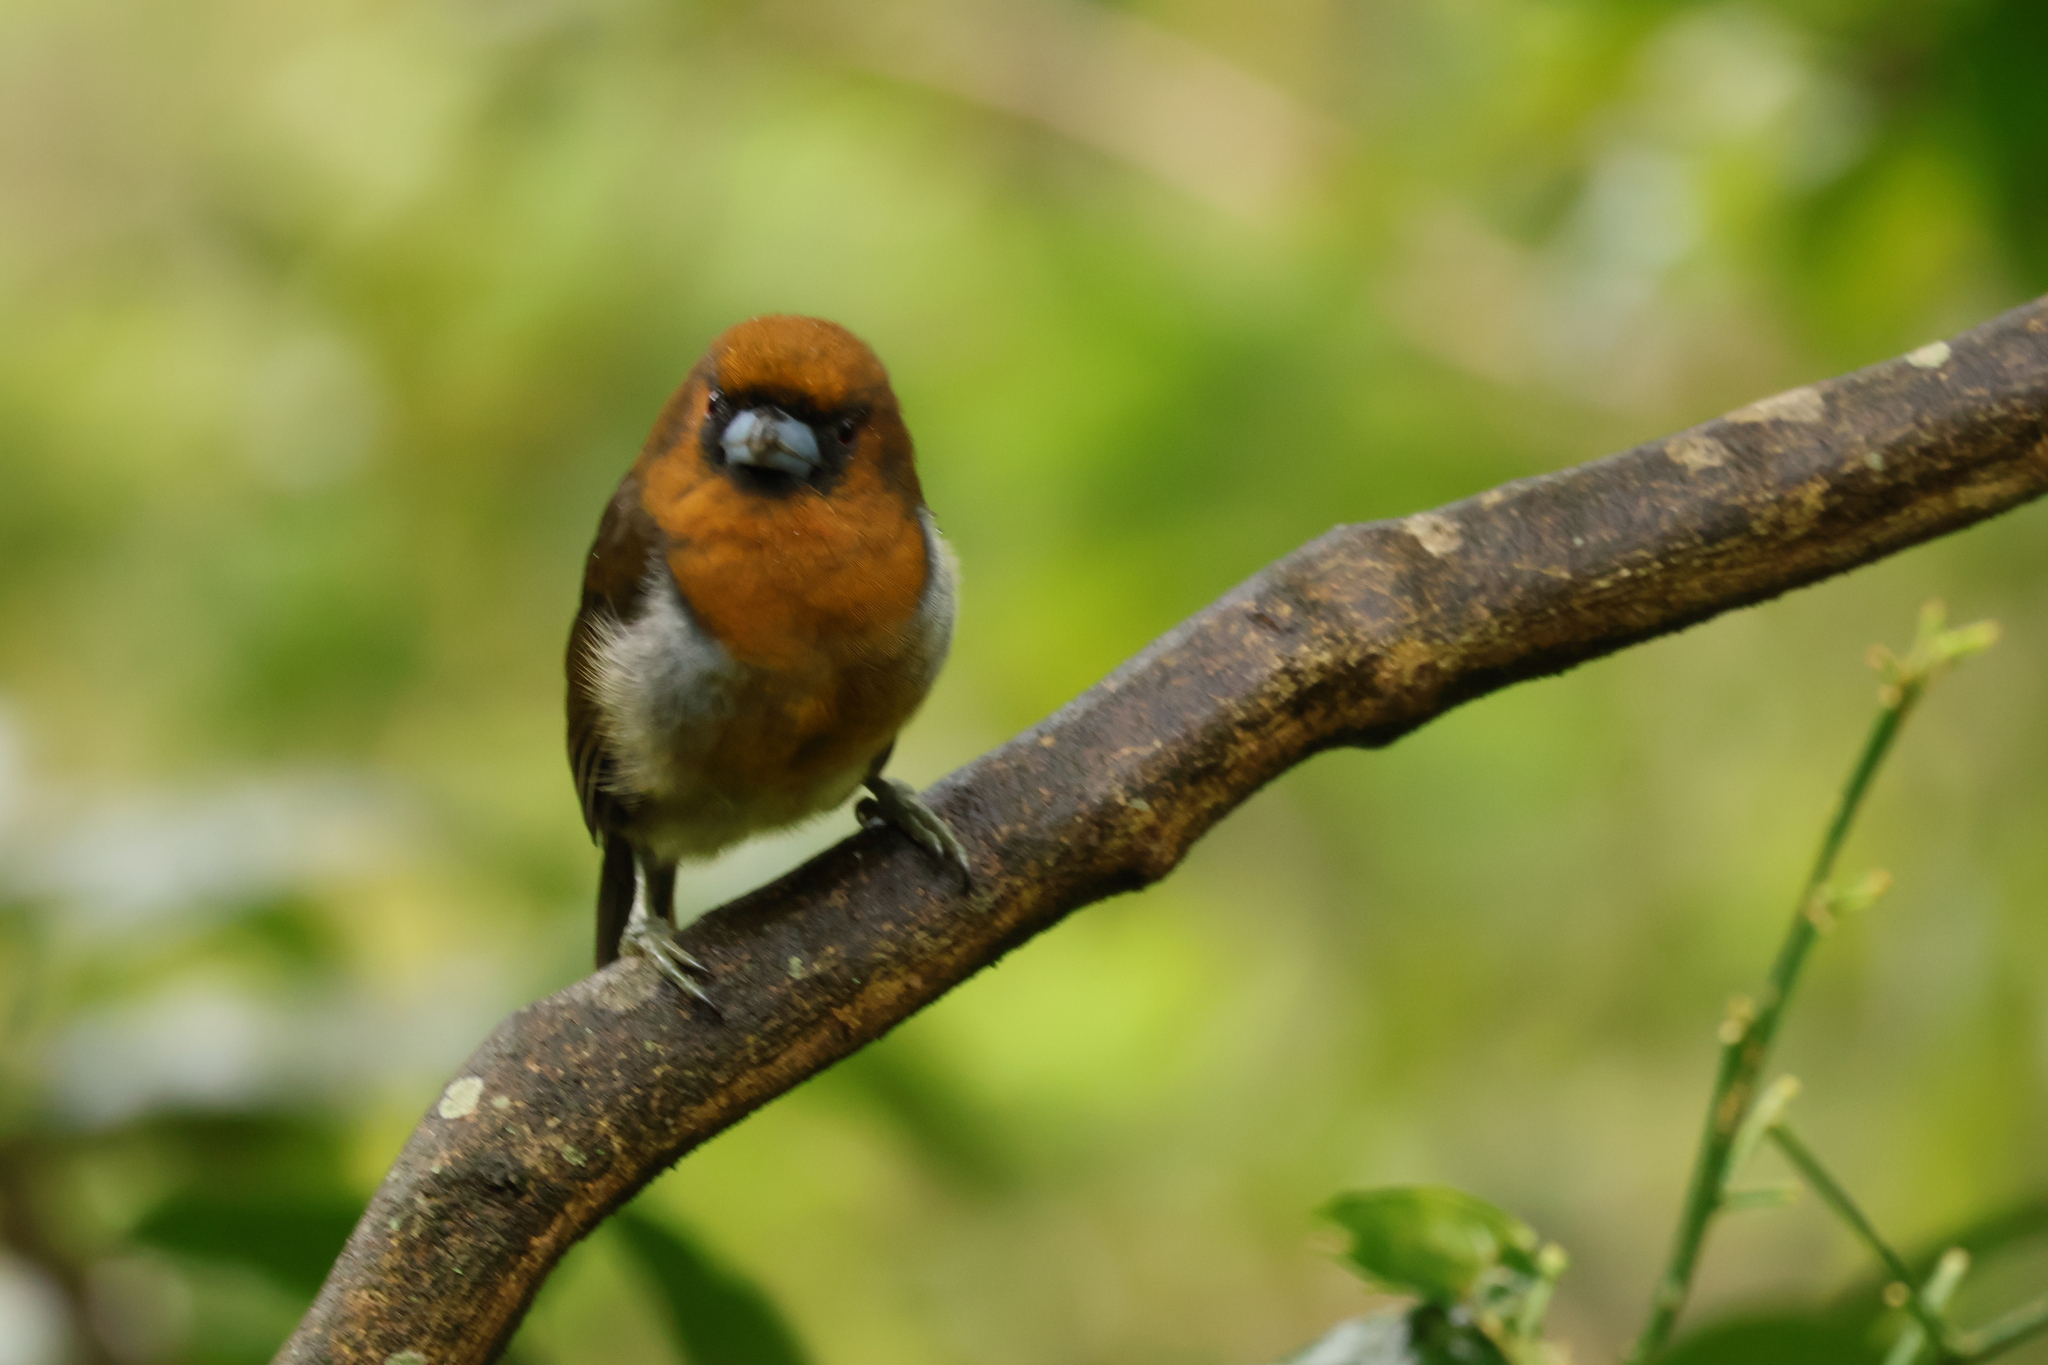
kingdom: Animalia
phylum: Chordata
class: Aves
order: Piciformes
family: Semnornithidae
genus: Semnornis
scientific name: Semnornis frantzii
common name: Prong-billed barbet
